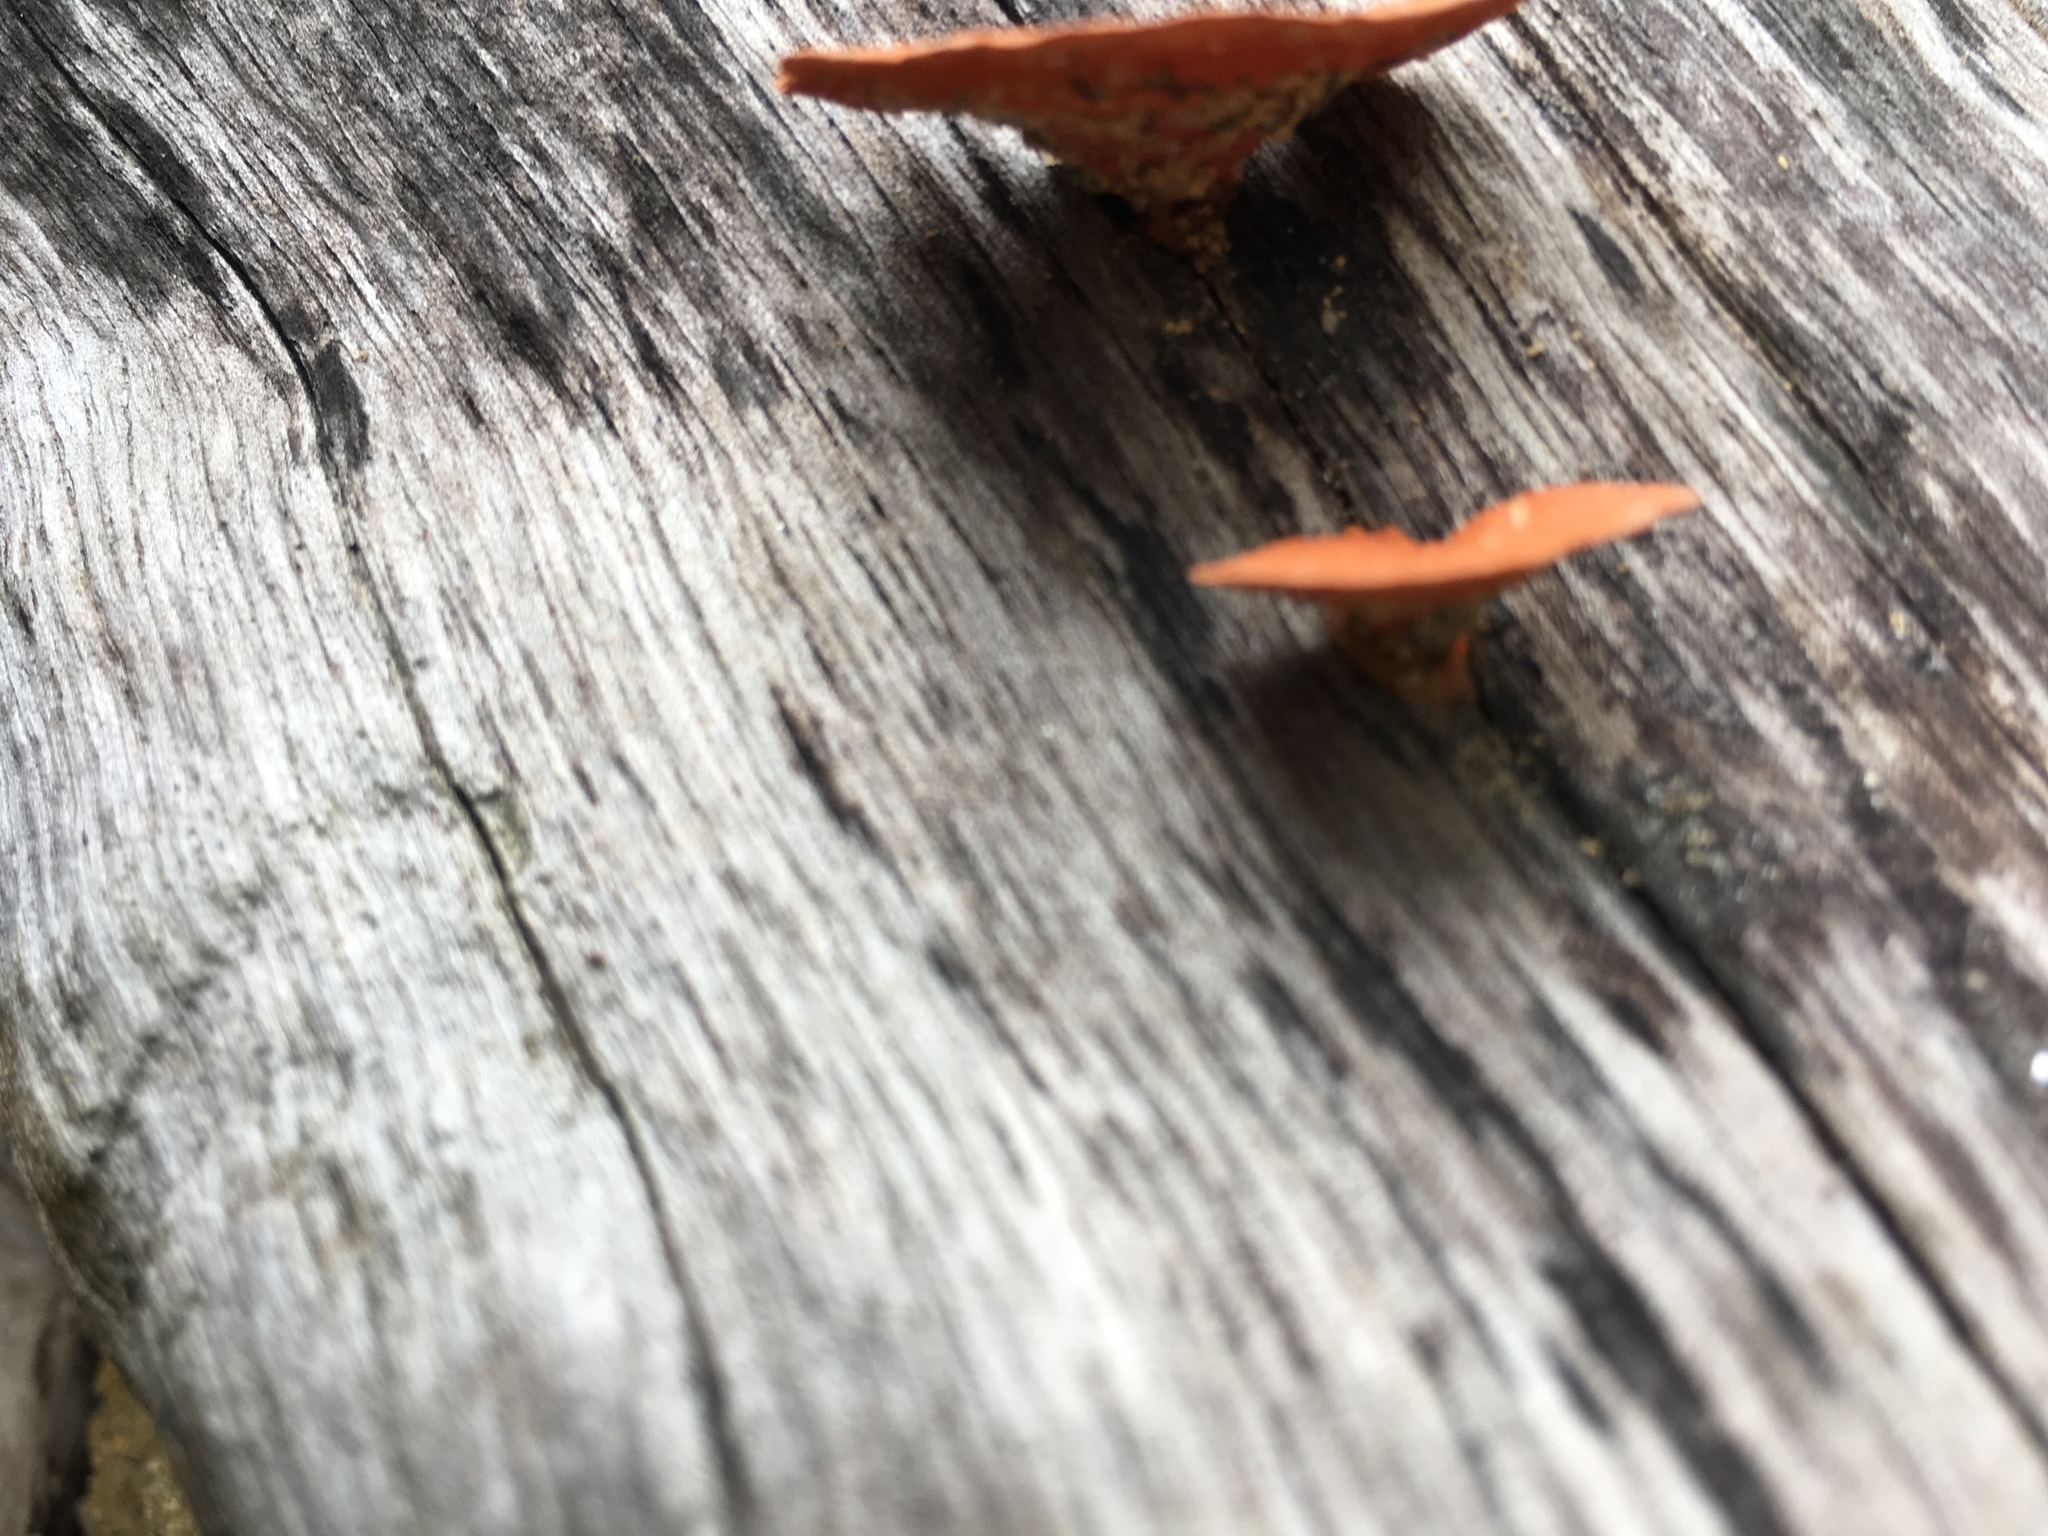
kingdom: Fungi
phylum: Basidiomycota
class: Agaricomycetes
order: Polyporales
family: Polyporaceae
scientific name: Polyporaceae
